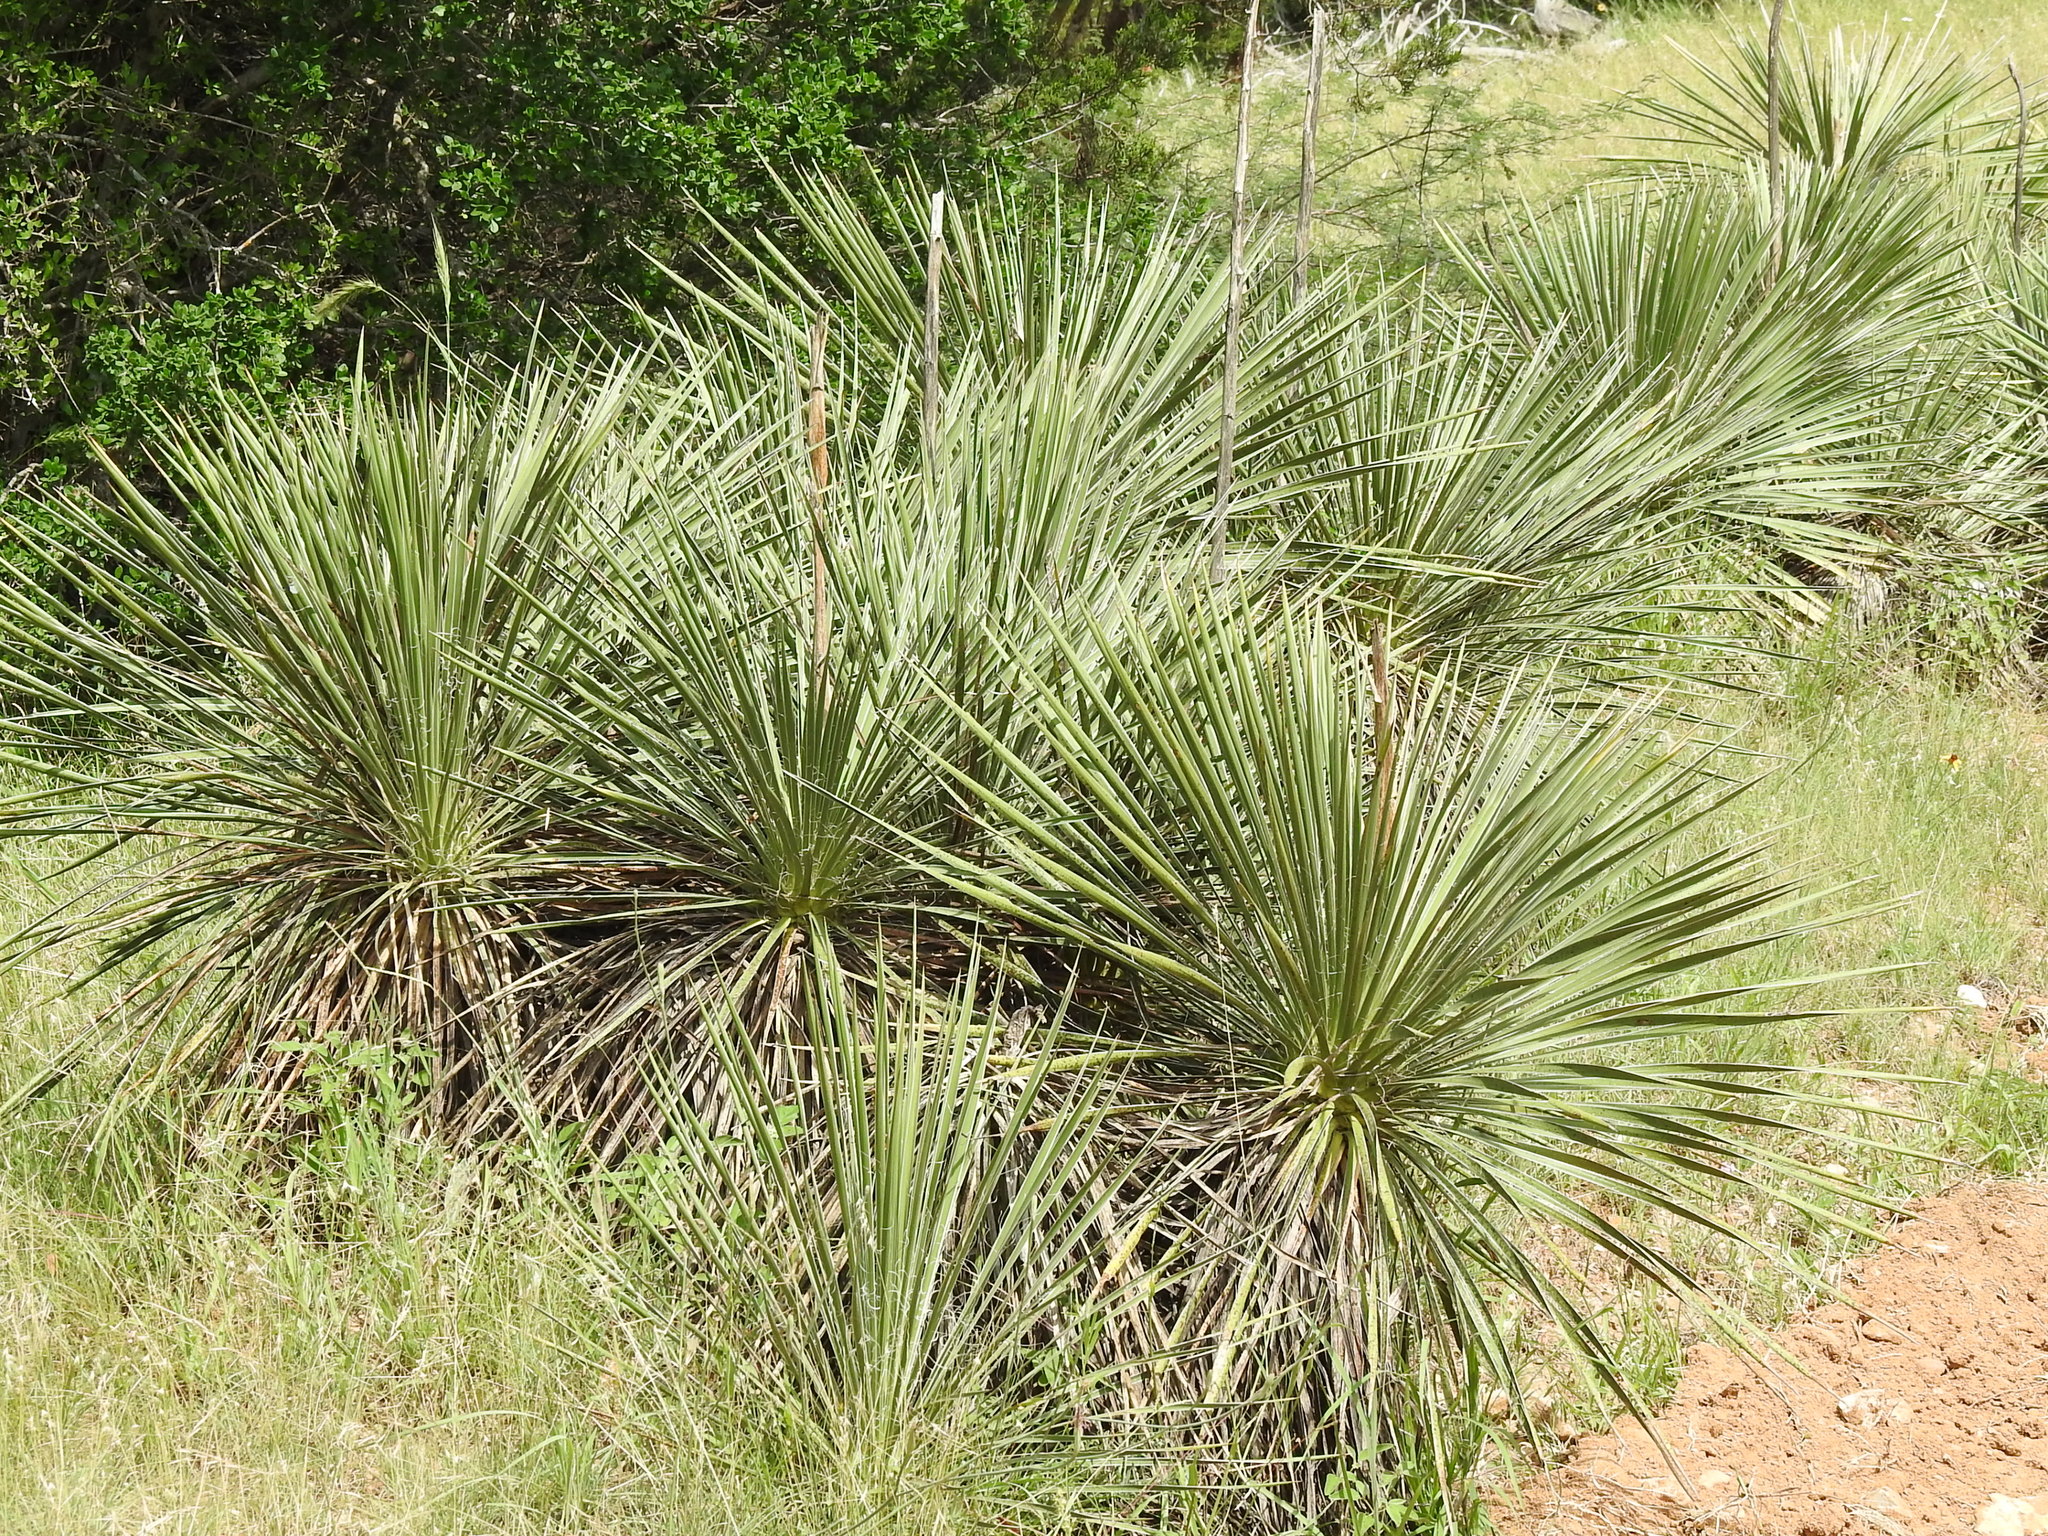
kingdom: Plantae
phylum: Tracheophyta
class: Liliopsida
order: Asparagales
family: Asparagaceae
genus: Yucca
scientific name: Yucca constricta
